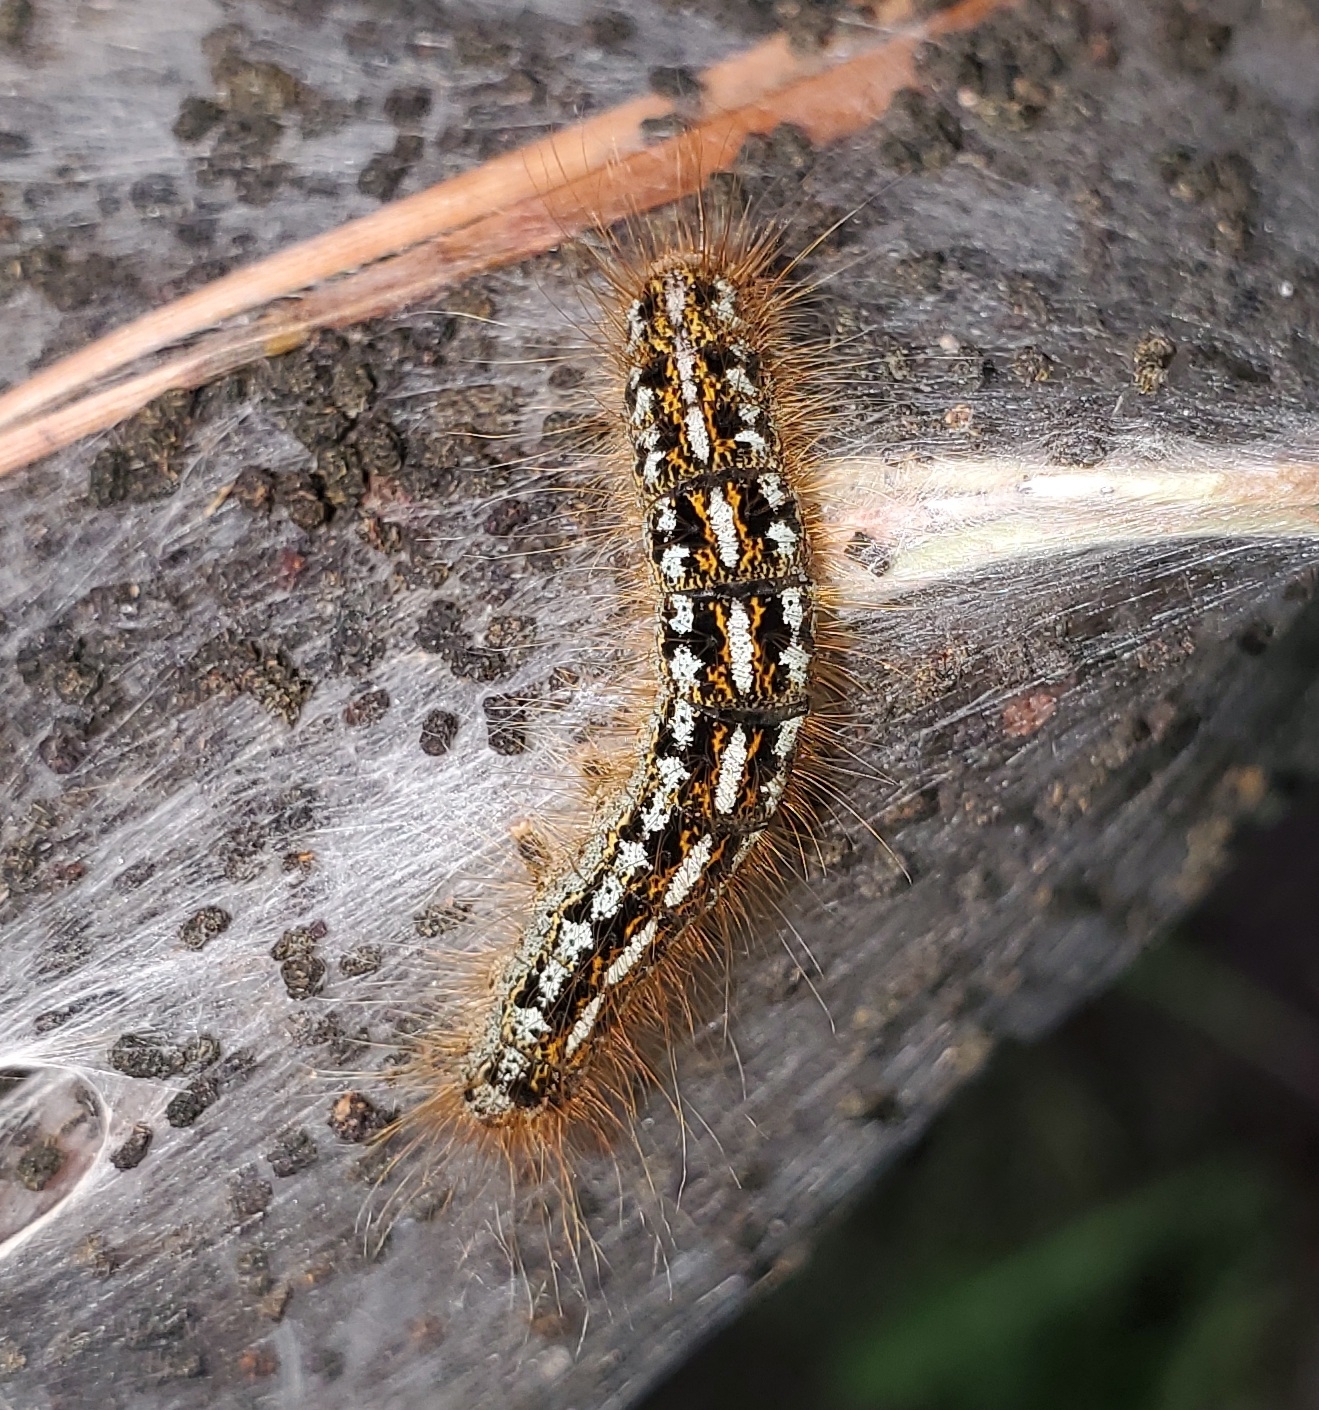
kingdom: Animalia
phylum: Arthropoda
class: Insecta
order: Lepidoptera
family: Lasiocampidae
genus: Malacosoma
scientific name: Malacosoma californica
